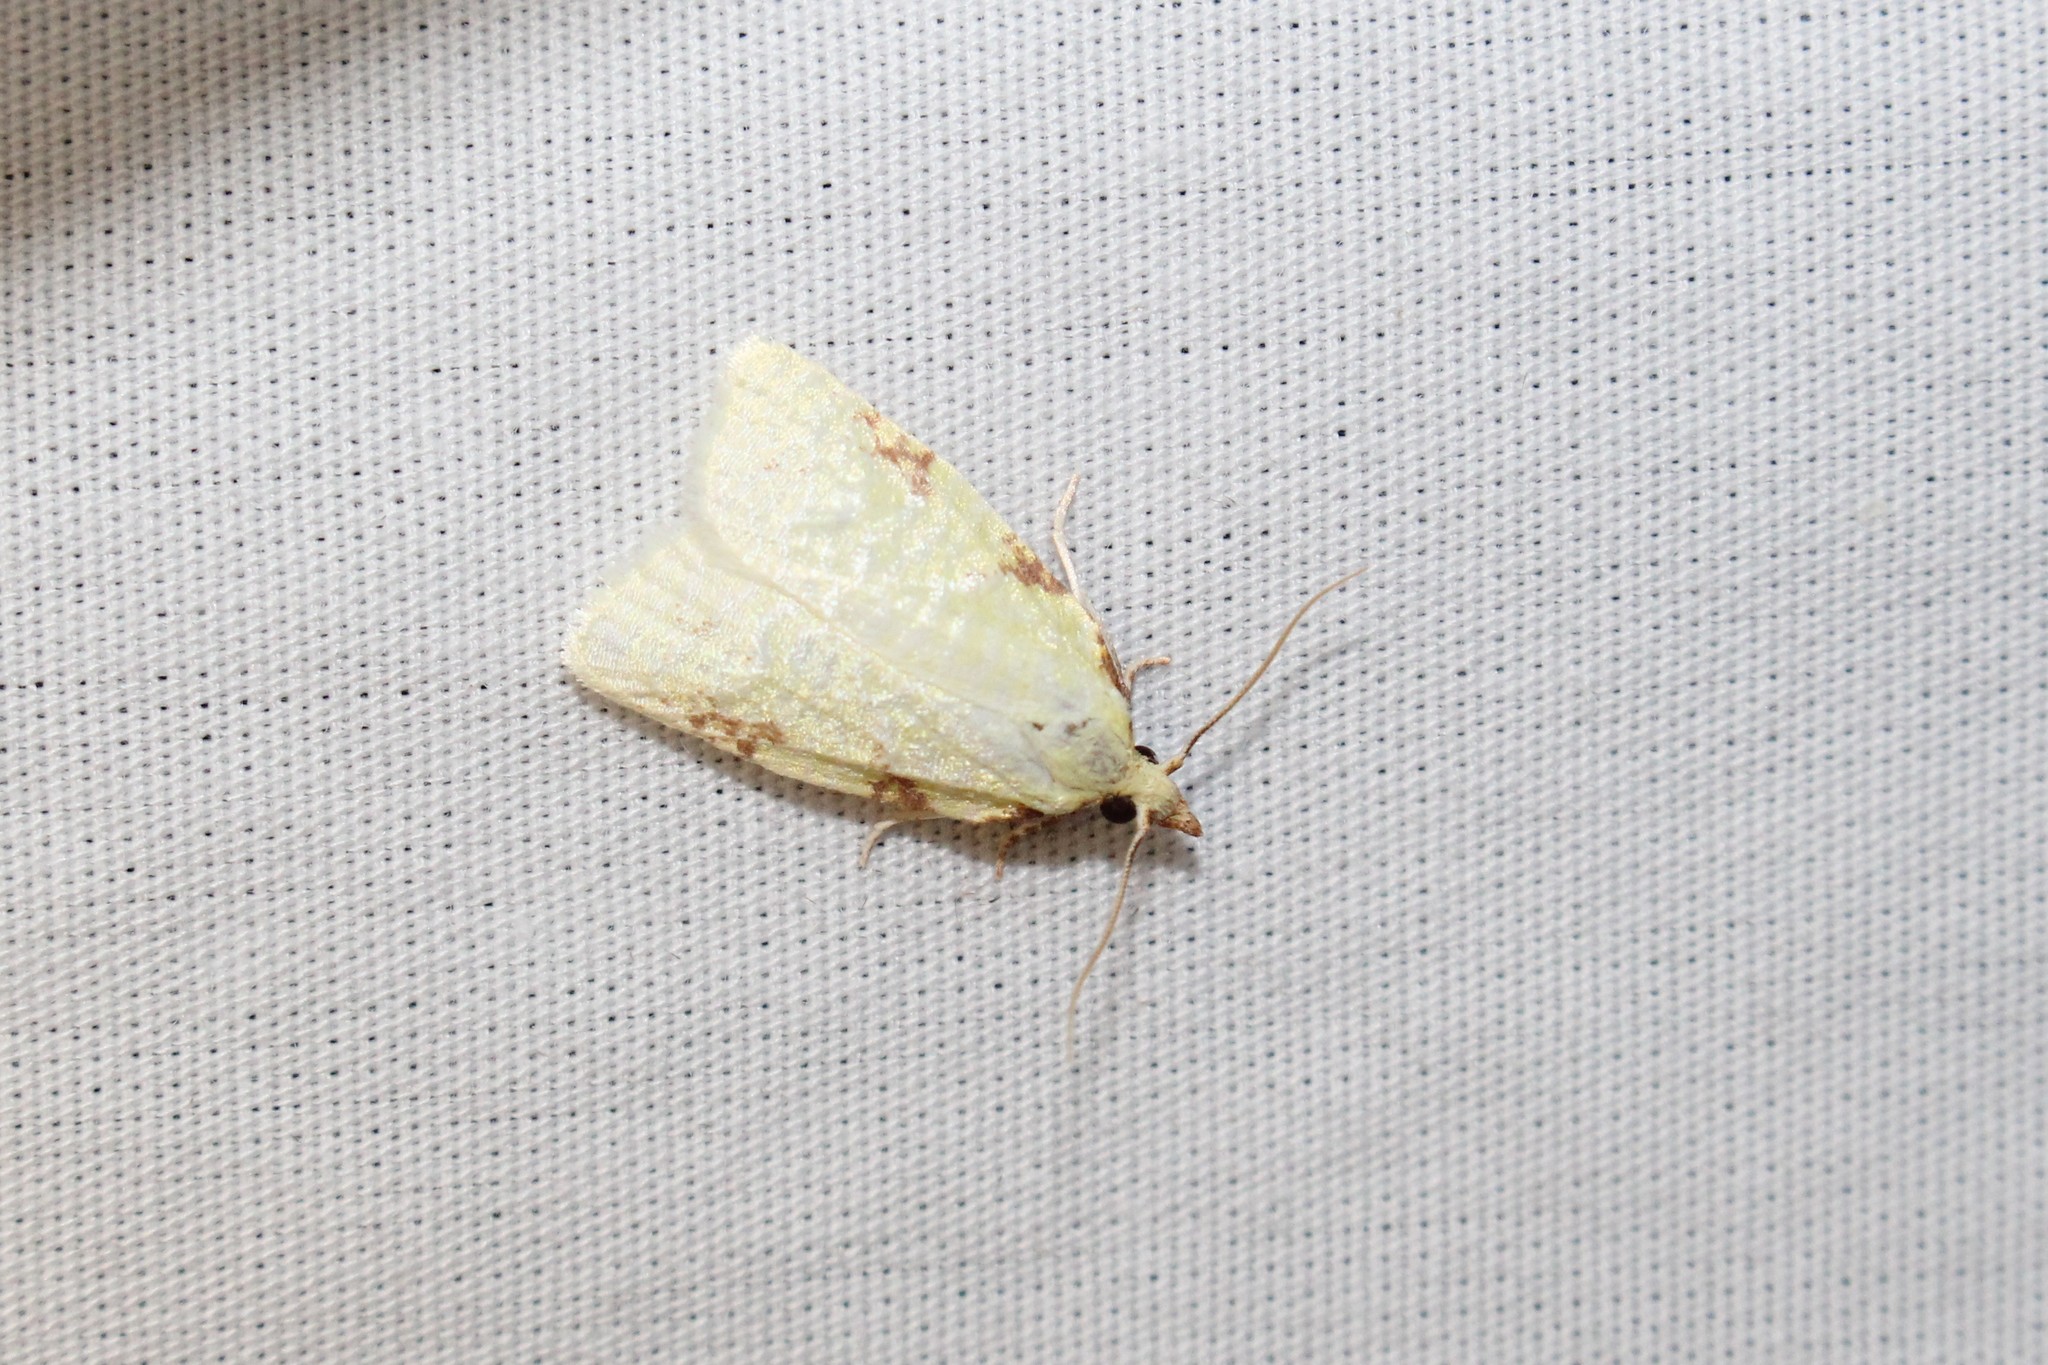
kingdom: Animalia
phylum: Arthropoda
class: Insecta
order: Lepidoptera
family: Tortricidae
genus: Cenopis
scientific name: Cenopis pettitana
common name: Maple-basswood leafroller moth
